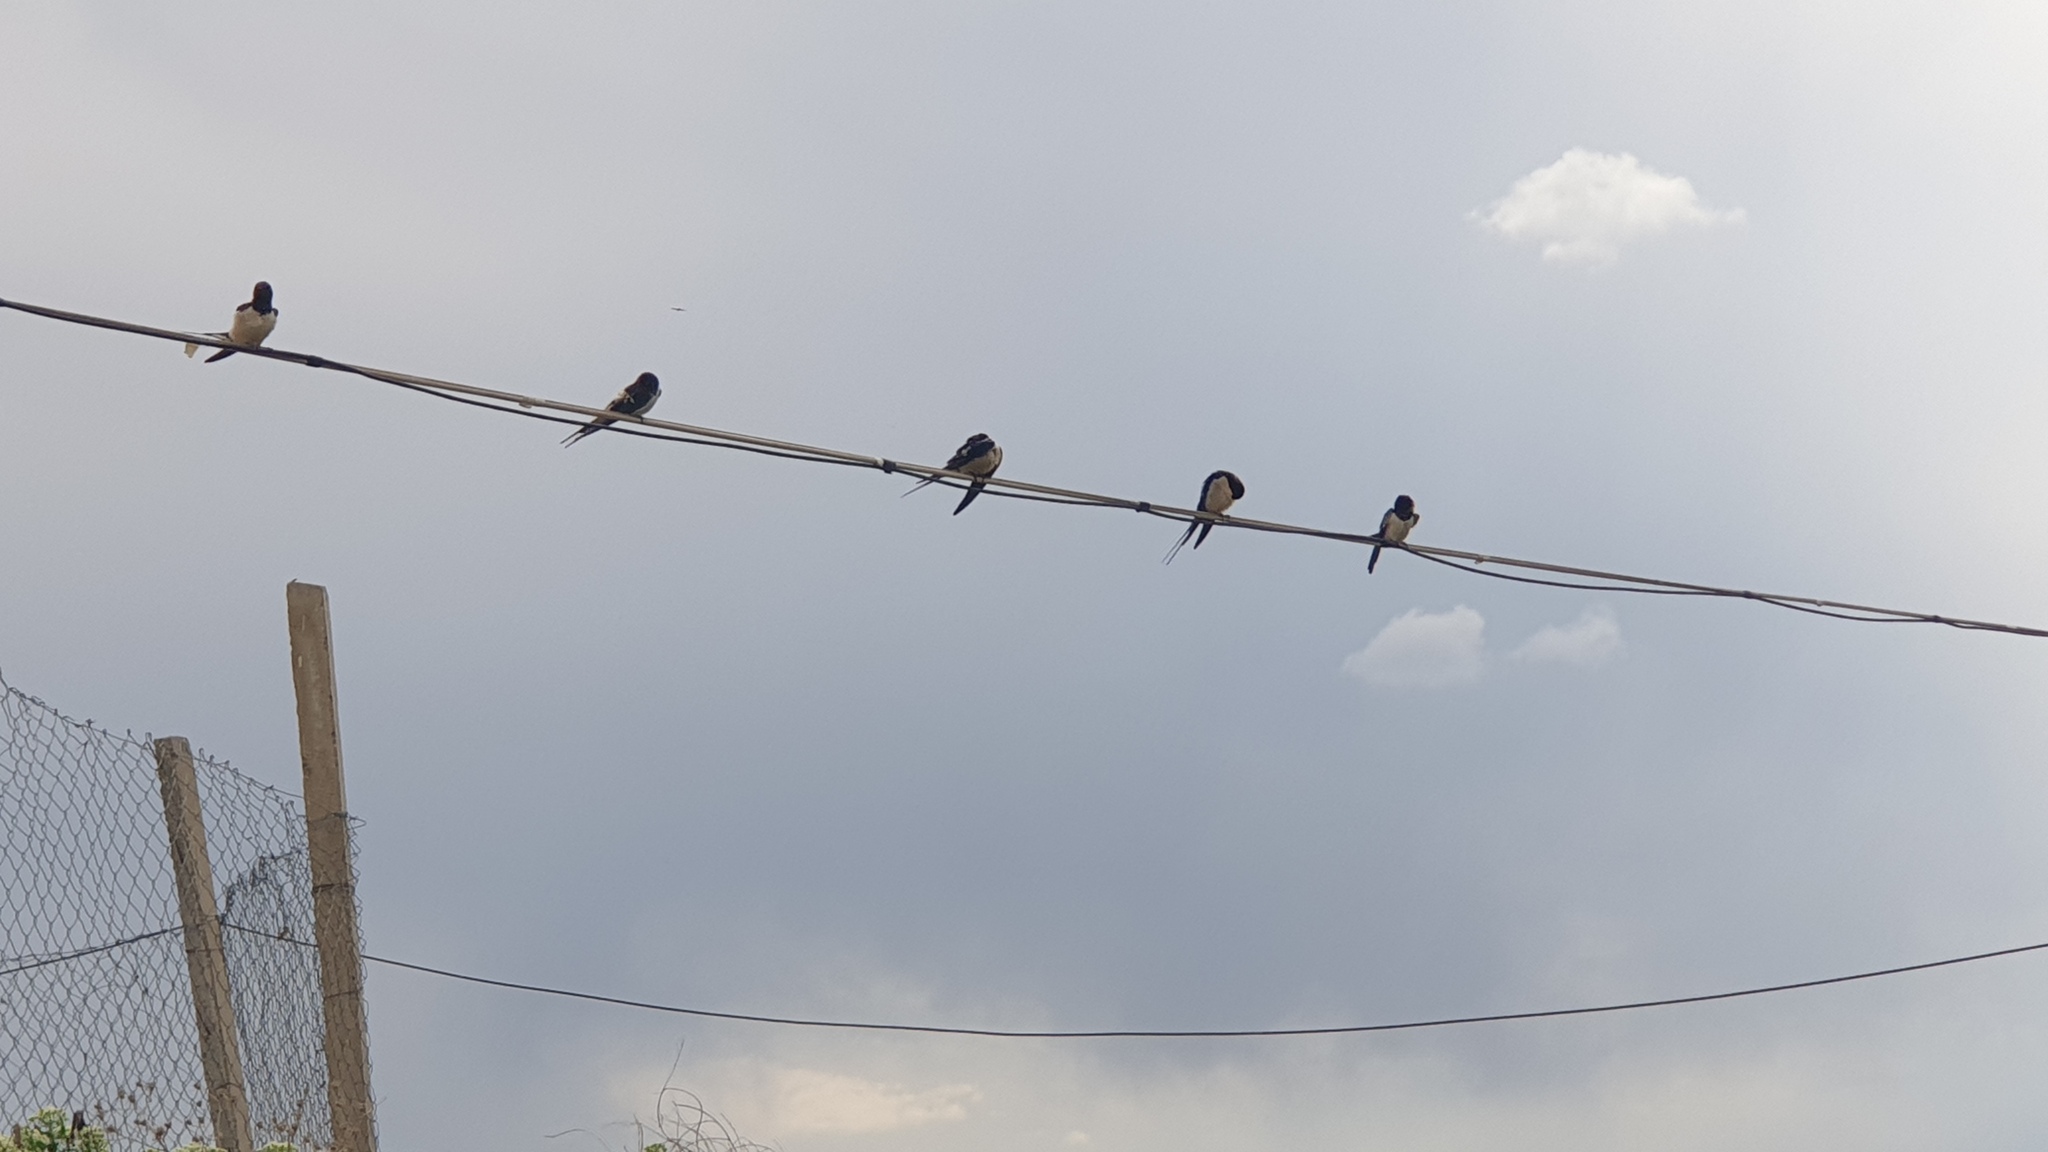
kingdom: Animalia
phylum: Chordata
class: Aves
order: Passeriformes
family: Hirundinidae
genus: Hirundo
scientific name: Hirundo rustica
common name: Barn swallow
